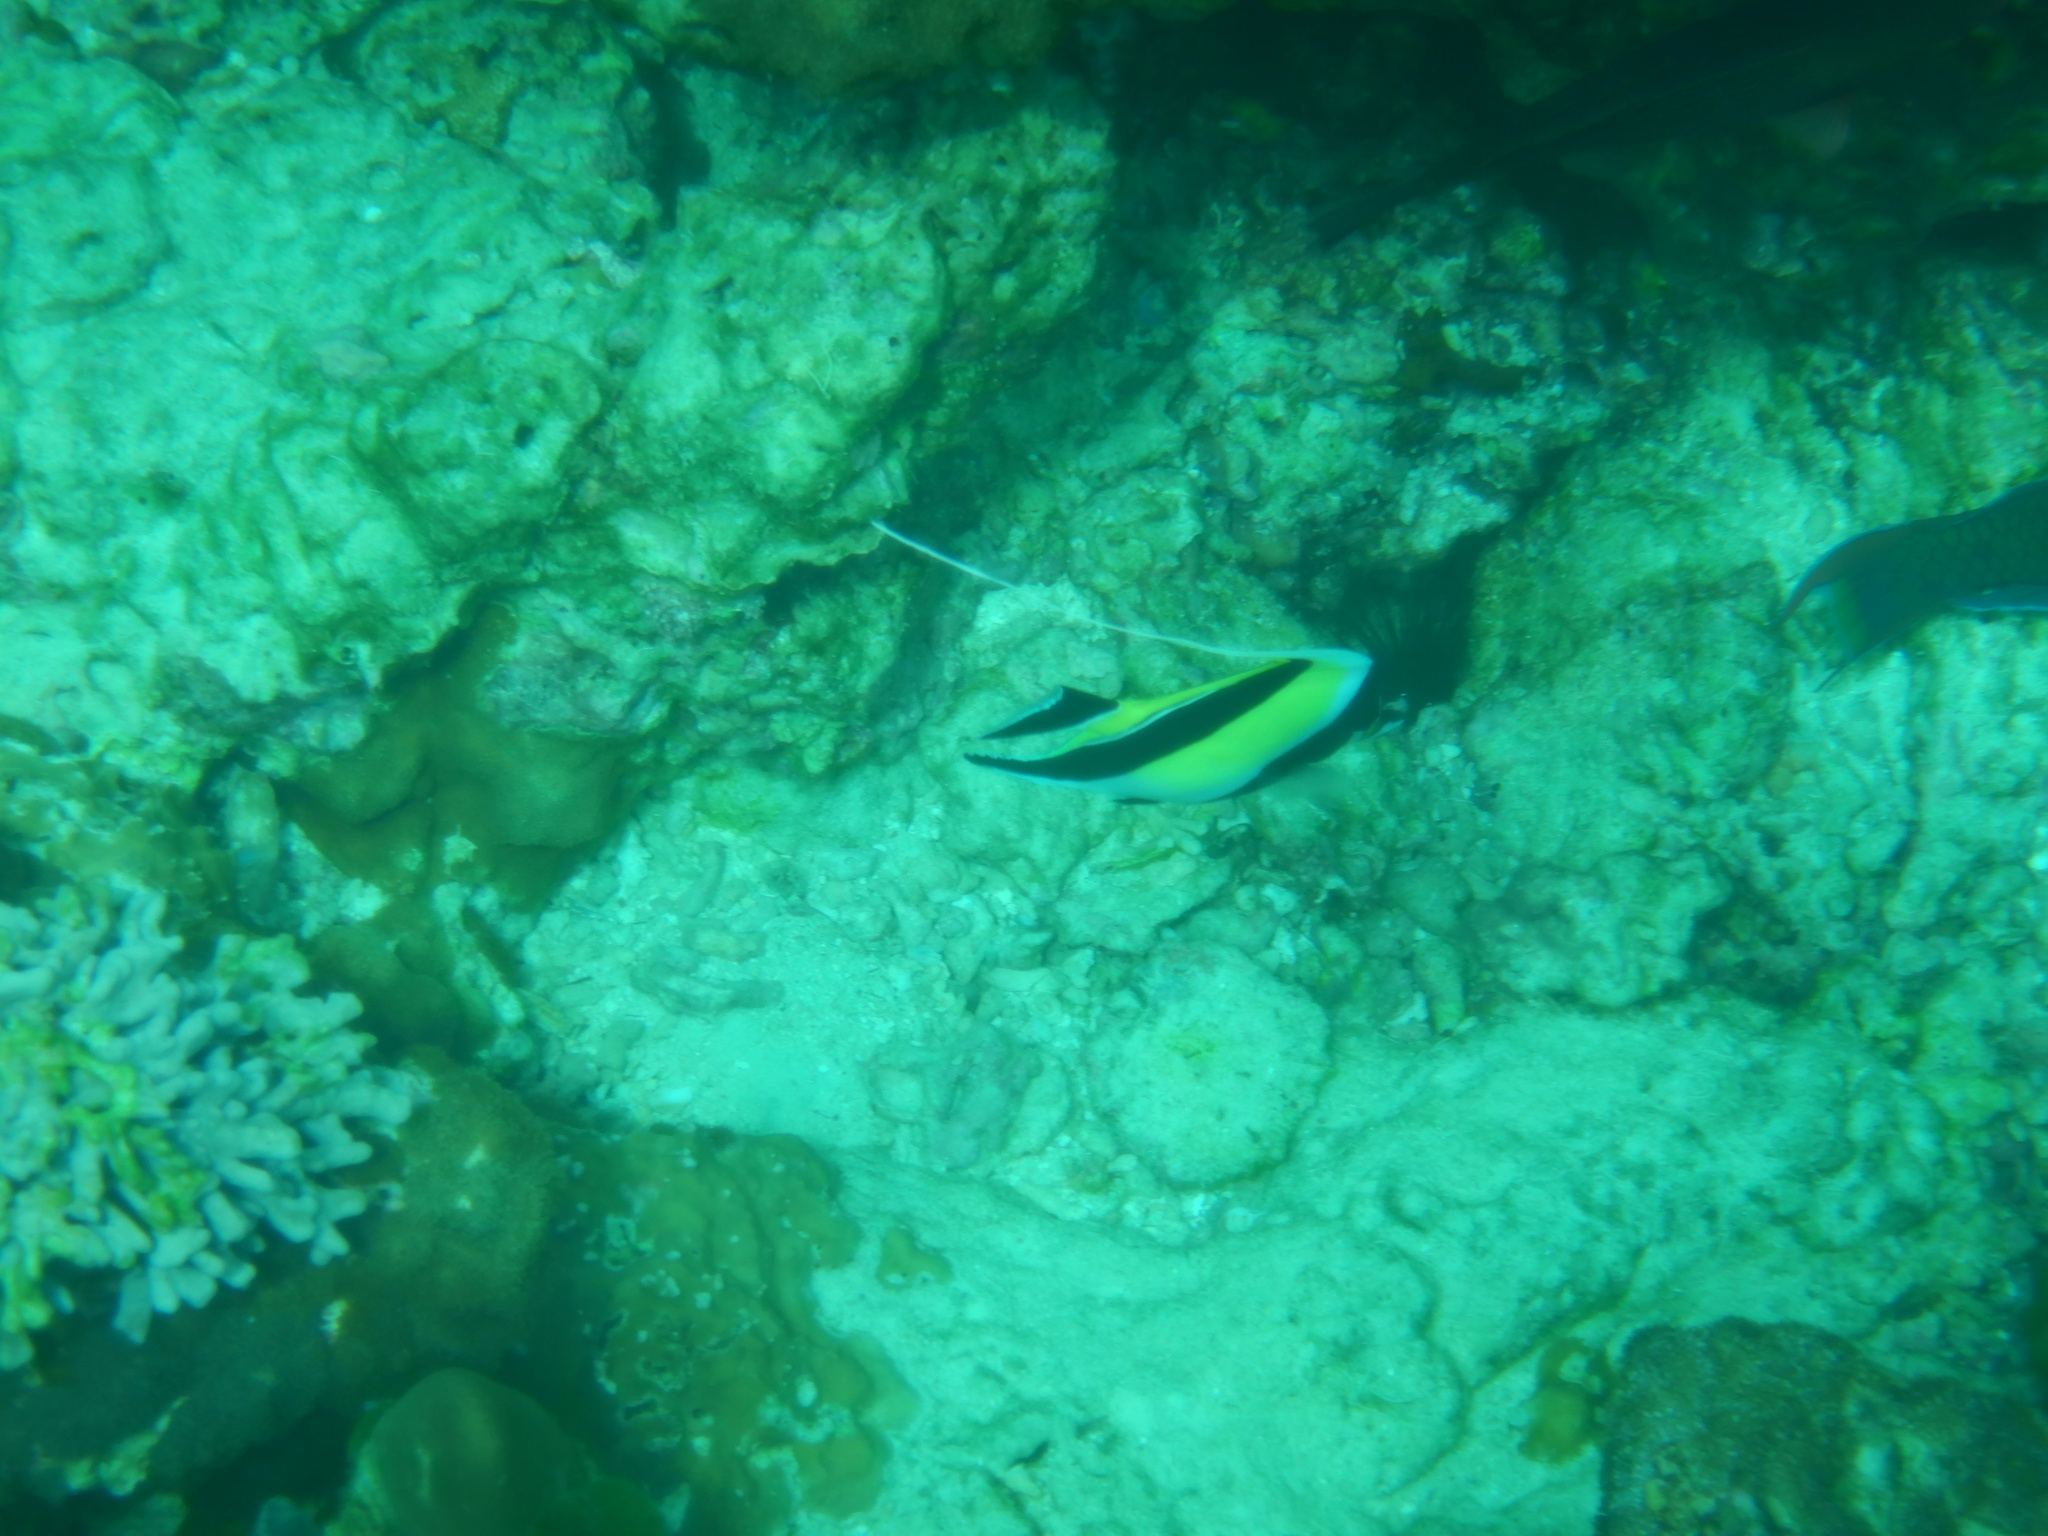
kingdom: Animalia
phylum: Chordata
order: Perciformes
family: Zanclidae
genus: Zanclus
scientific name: Zanclus cornutus
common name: Moorish idol
